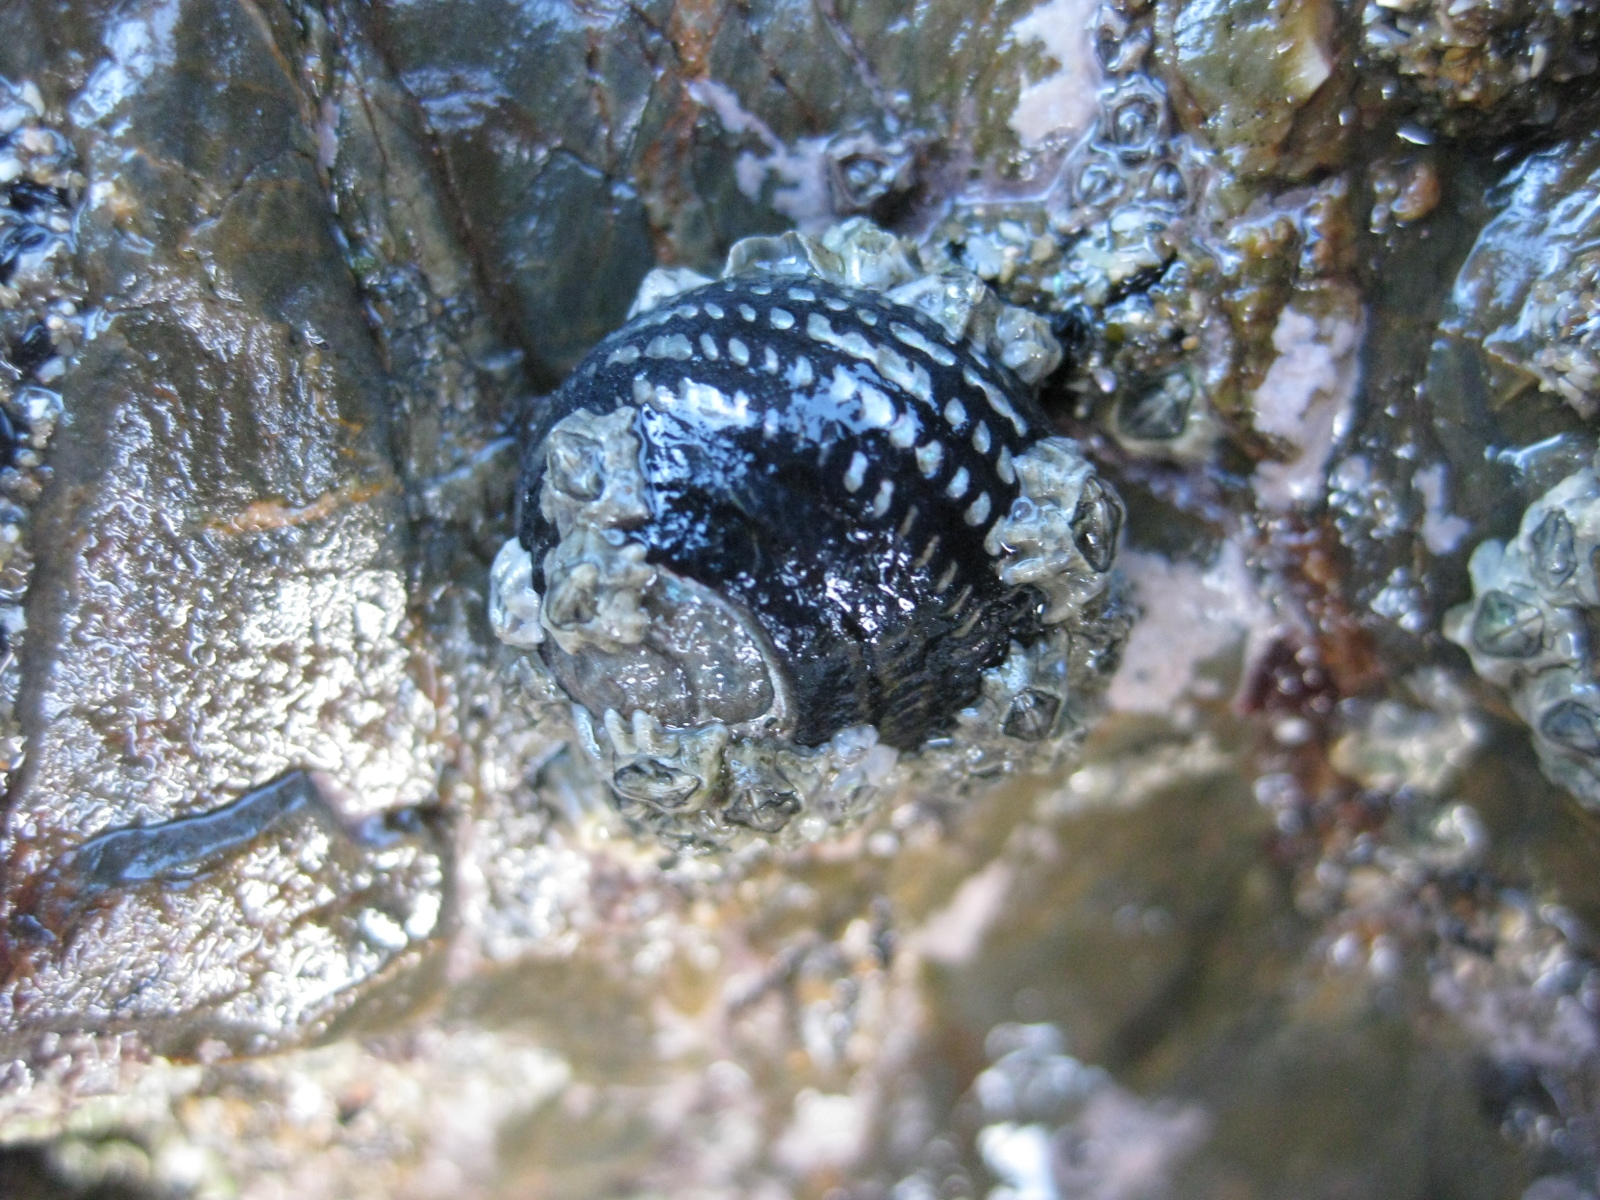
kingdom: Animalia
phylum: Mollusca
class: Gastropoda
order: Trochida
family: Trochidae
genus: Diloma
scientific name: Diloma aethiops
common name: Scorched monodont
